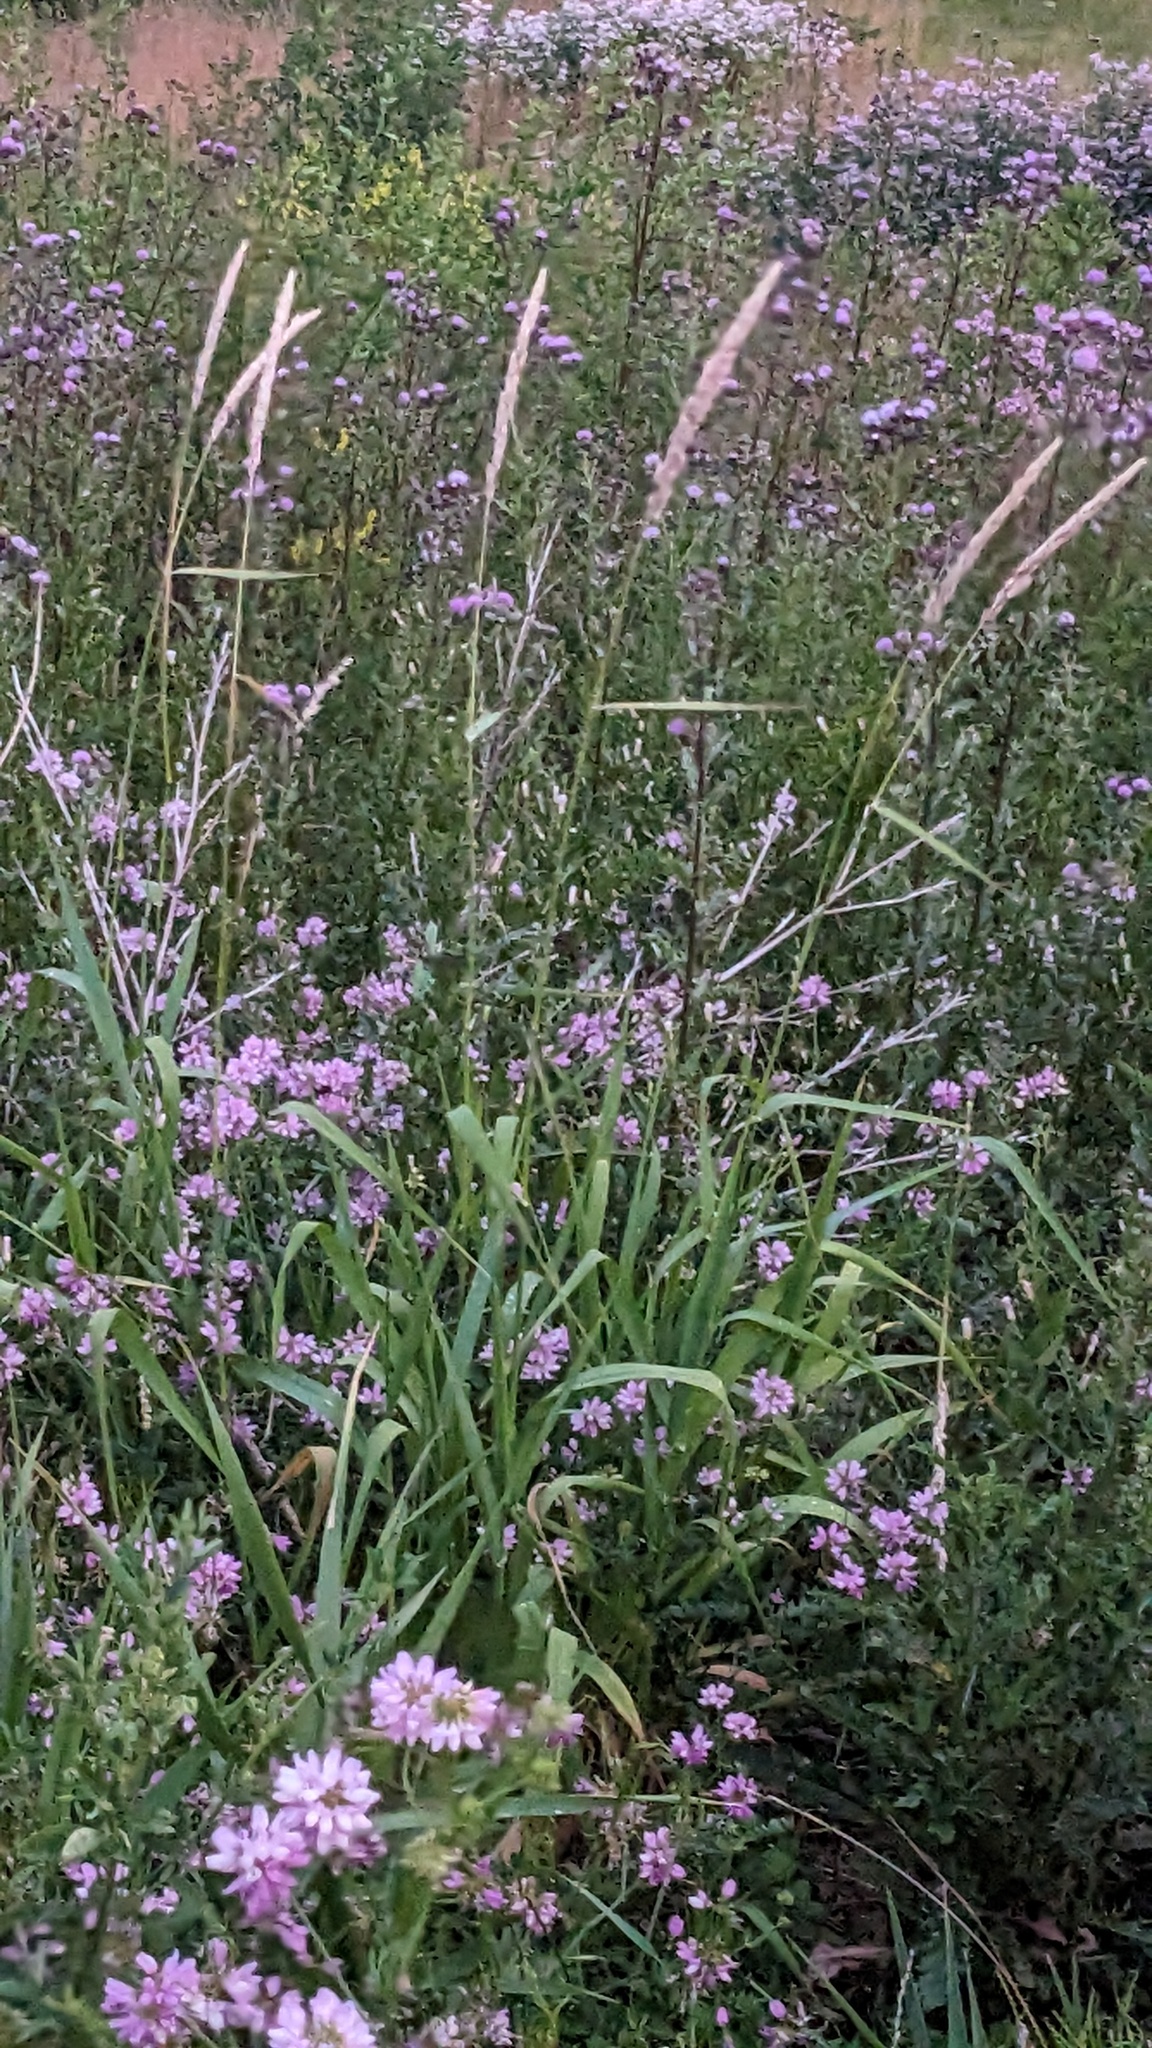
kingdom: Plantae
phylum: Tracheophyta
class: Liliopsida
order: Poales
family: Poaceae
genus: Phalaris
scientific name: Phalaris arundinacea
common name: Reed canary-grass
